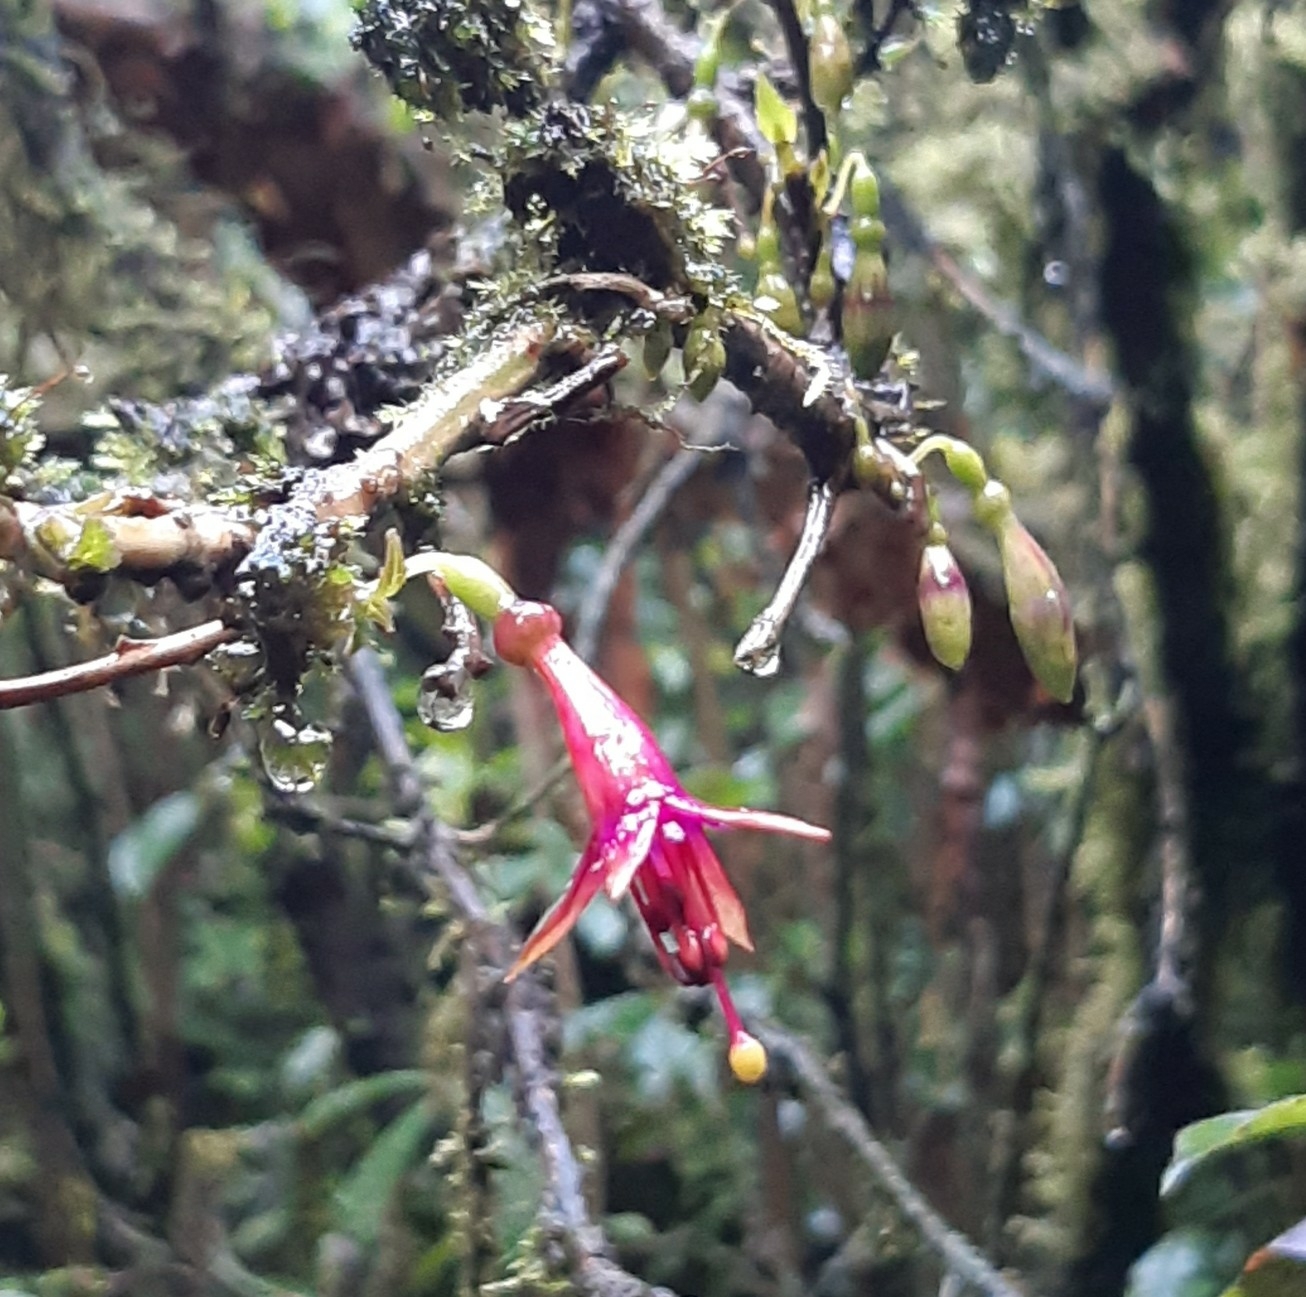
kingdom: Plantae
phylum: Tracheophyta
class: Magnoliopsida
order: Myrtales
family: Onagraceae
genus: Fuchsia
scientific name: Fuchsia excorticata
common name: Tree fuchsia
